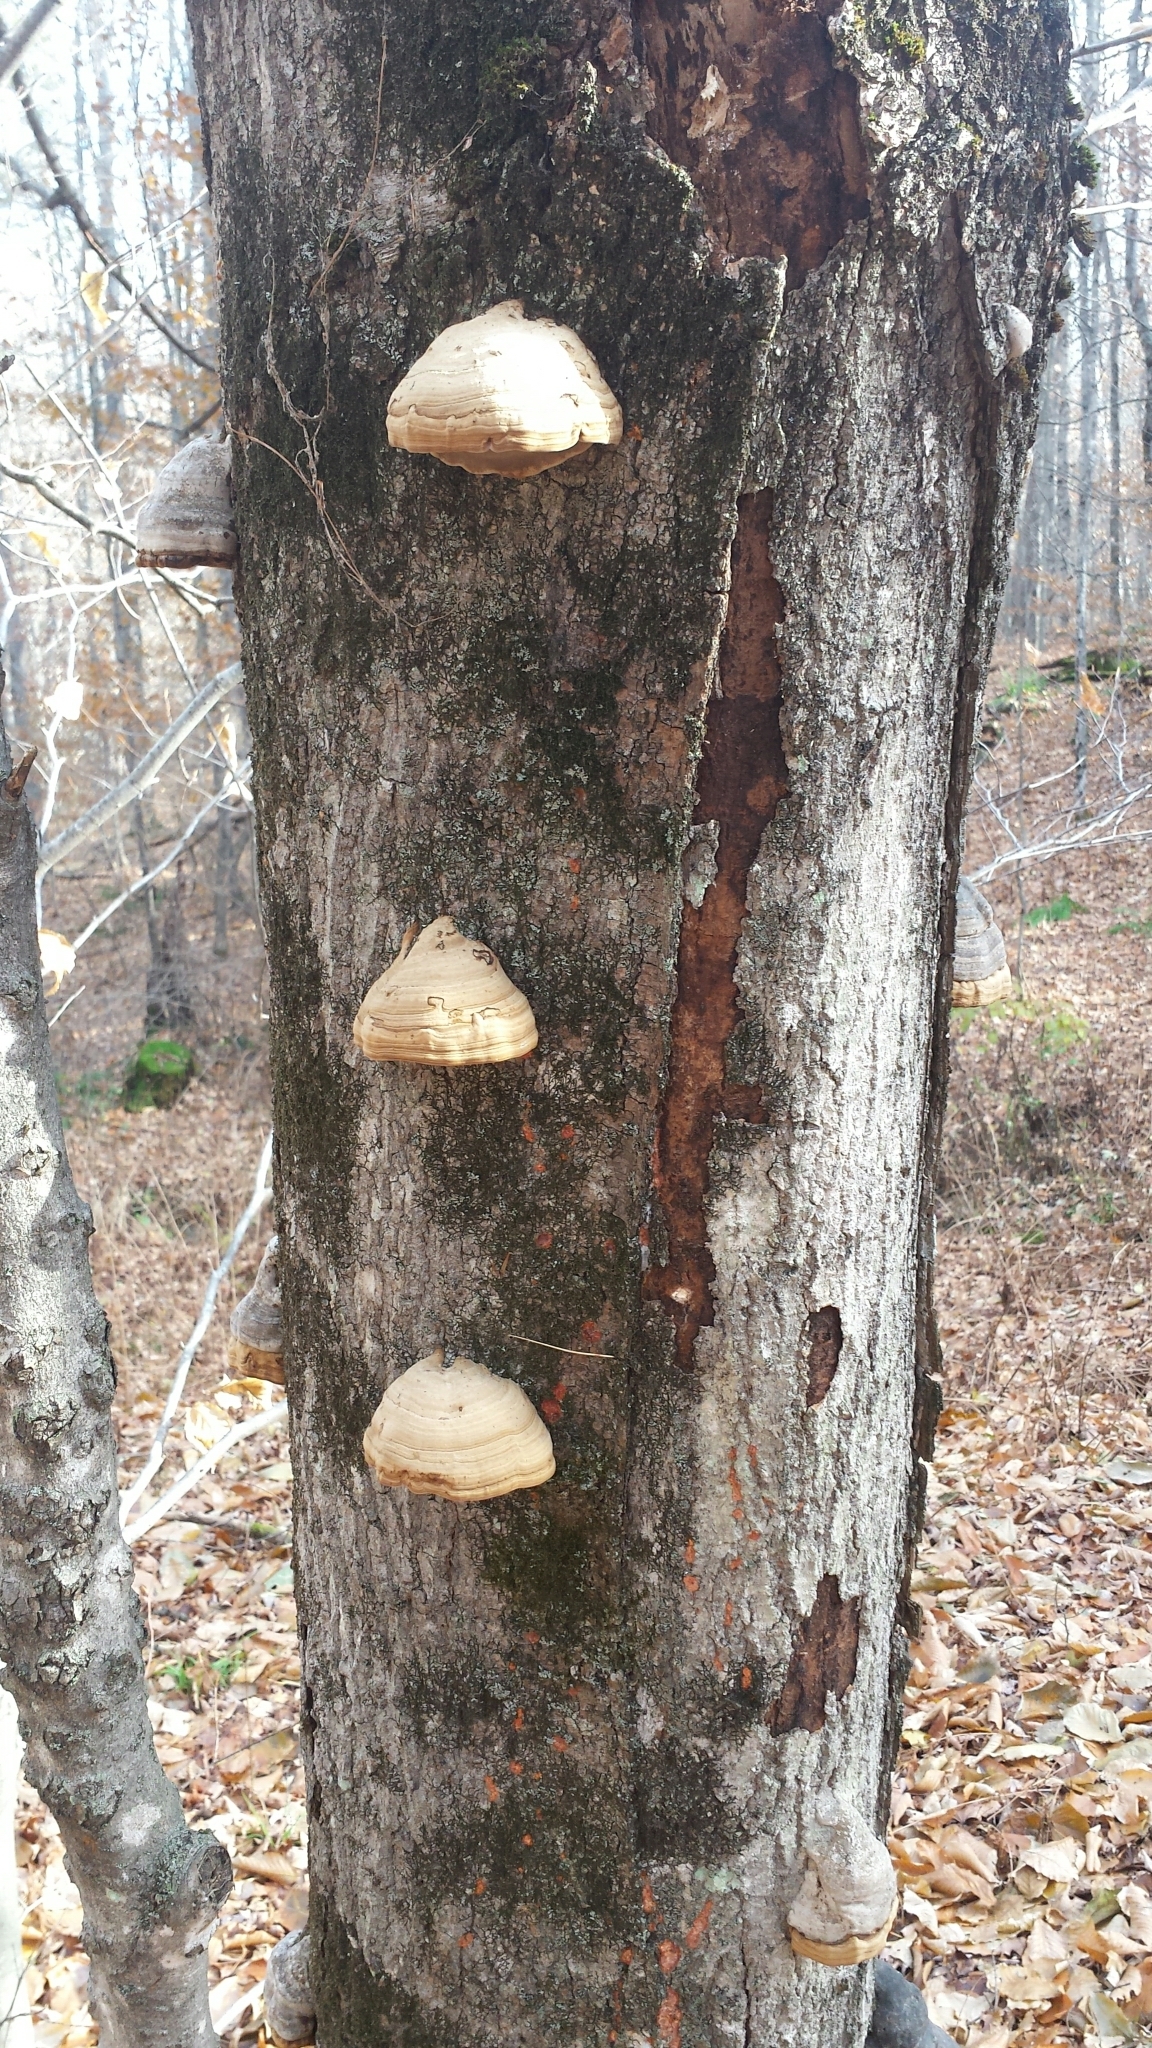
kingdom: Fungi
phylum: Basidiomycota
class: Agaricomycetes
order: Polyporales
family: Polyporaceae
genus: Fomes
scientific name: Fomes fomentarius
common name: Hoof fungus
